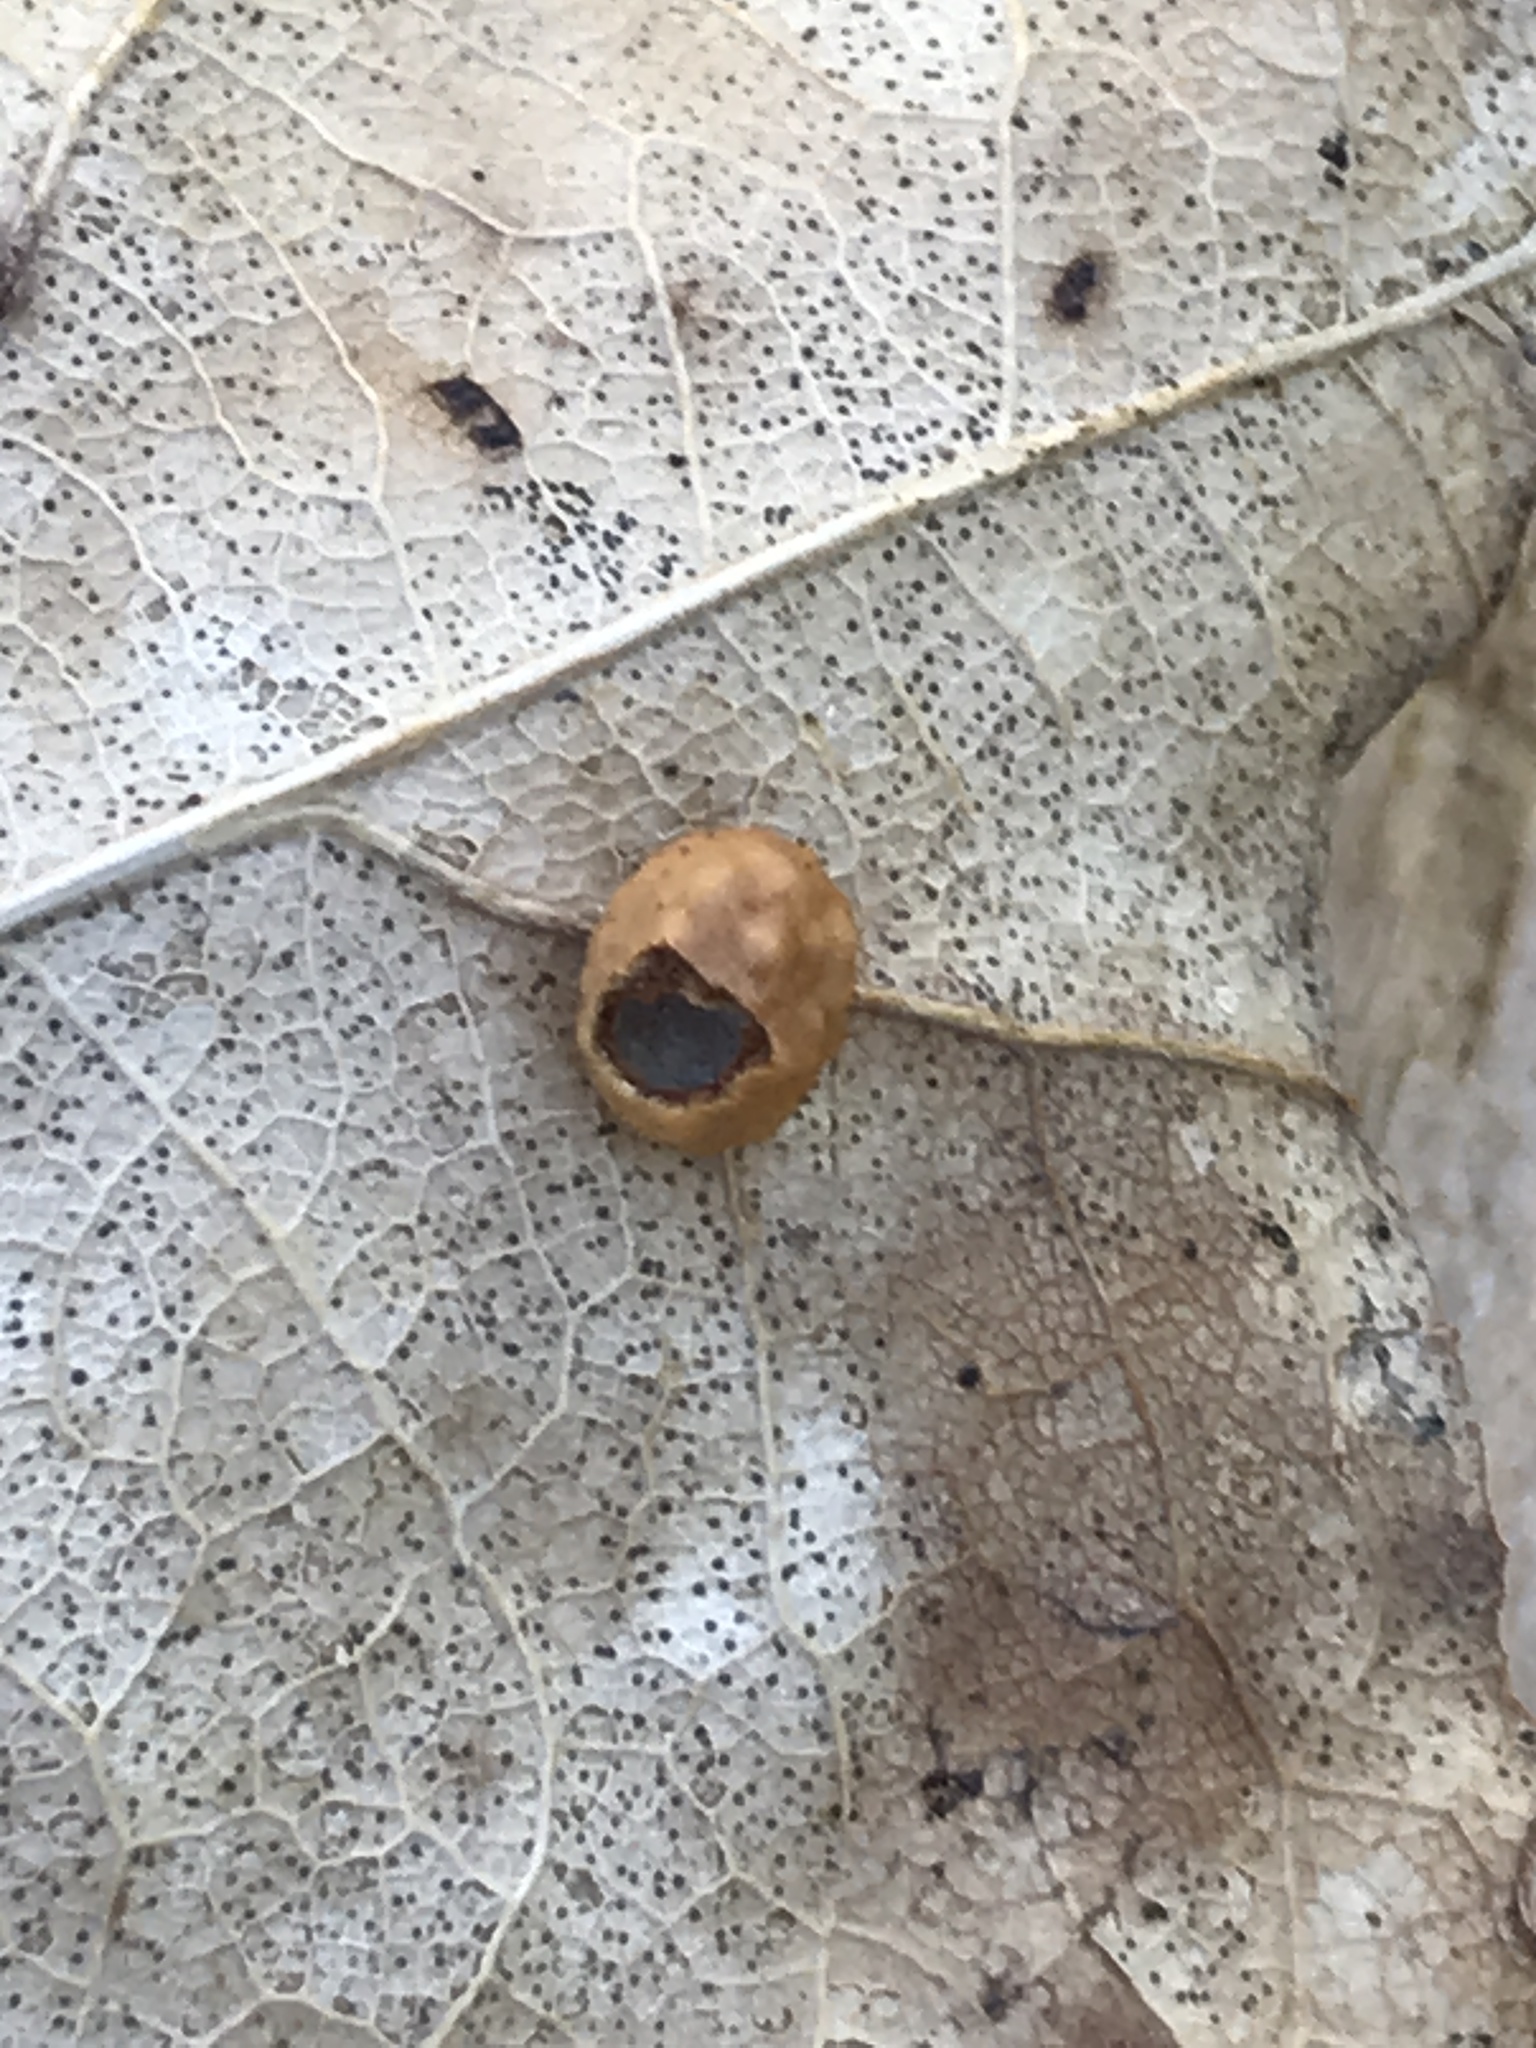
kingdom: Animalia
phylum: Arthropoda
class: Insecta
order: Hymenoptera
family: Cynipidae
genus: Cynips
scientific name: Cynips longiventris
